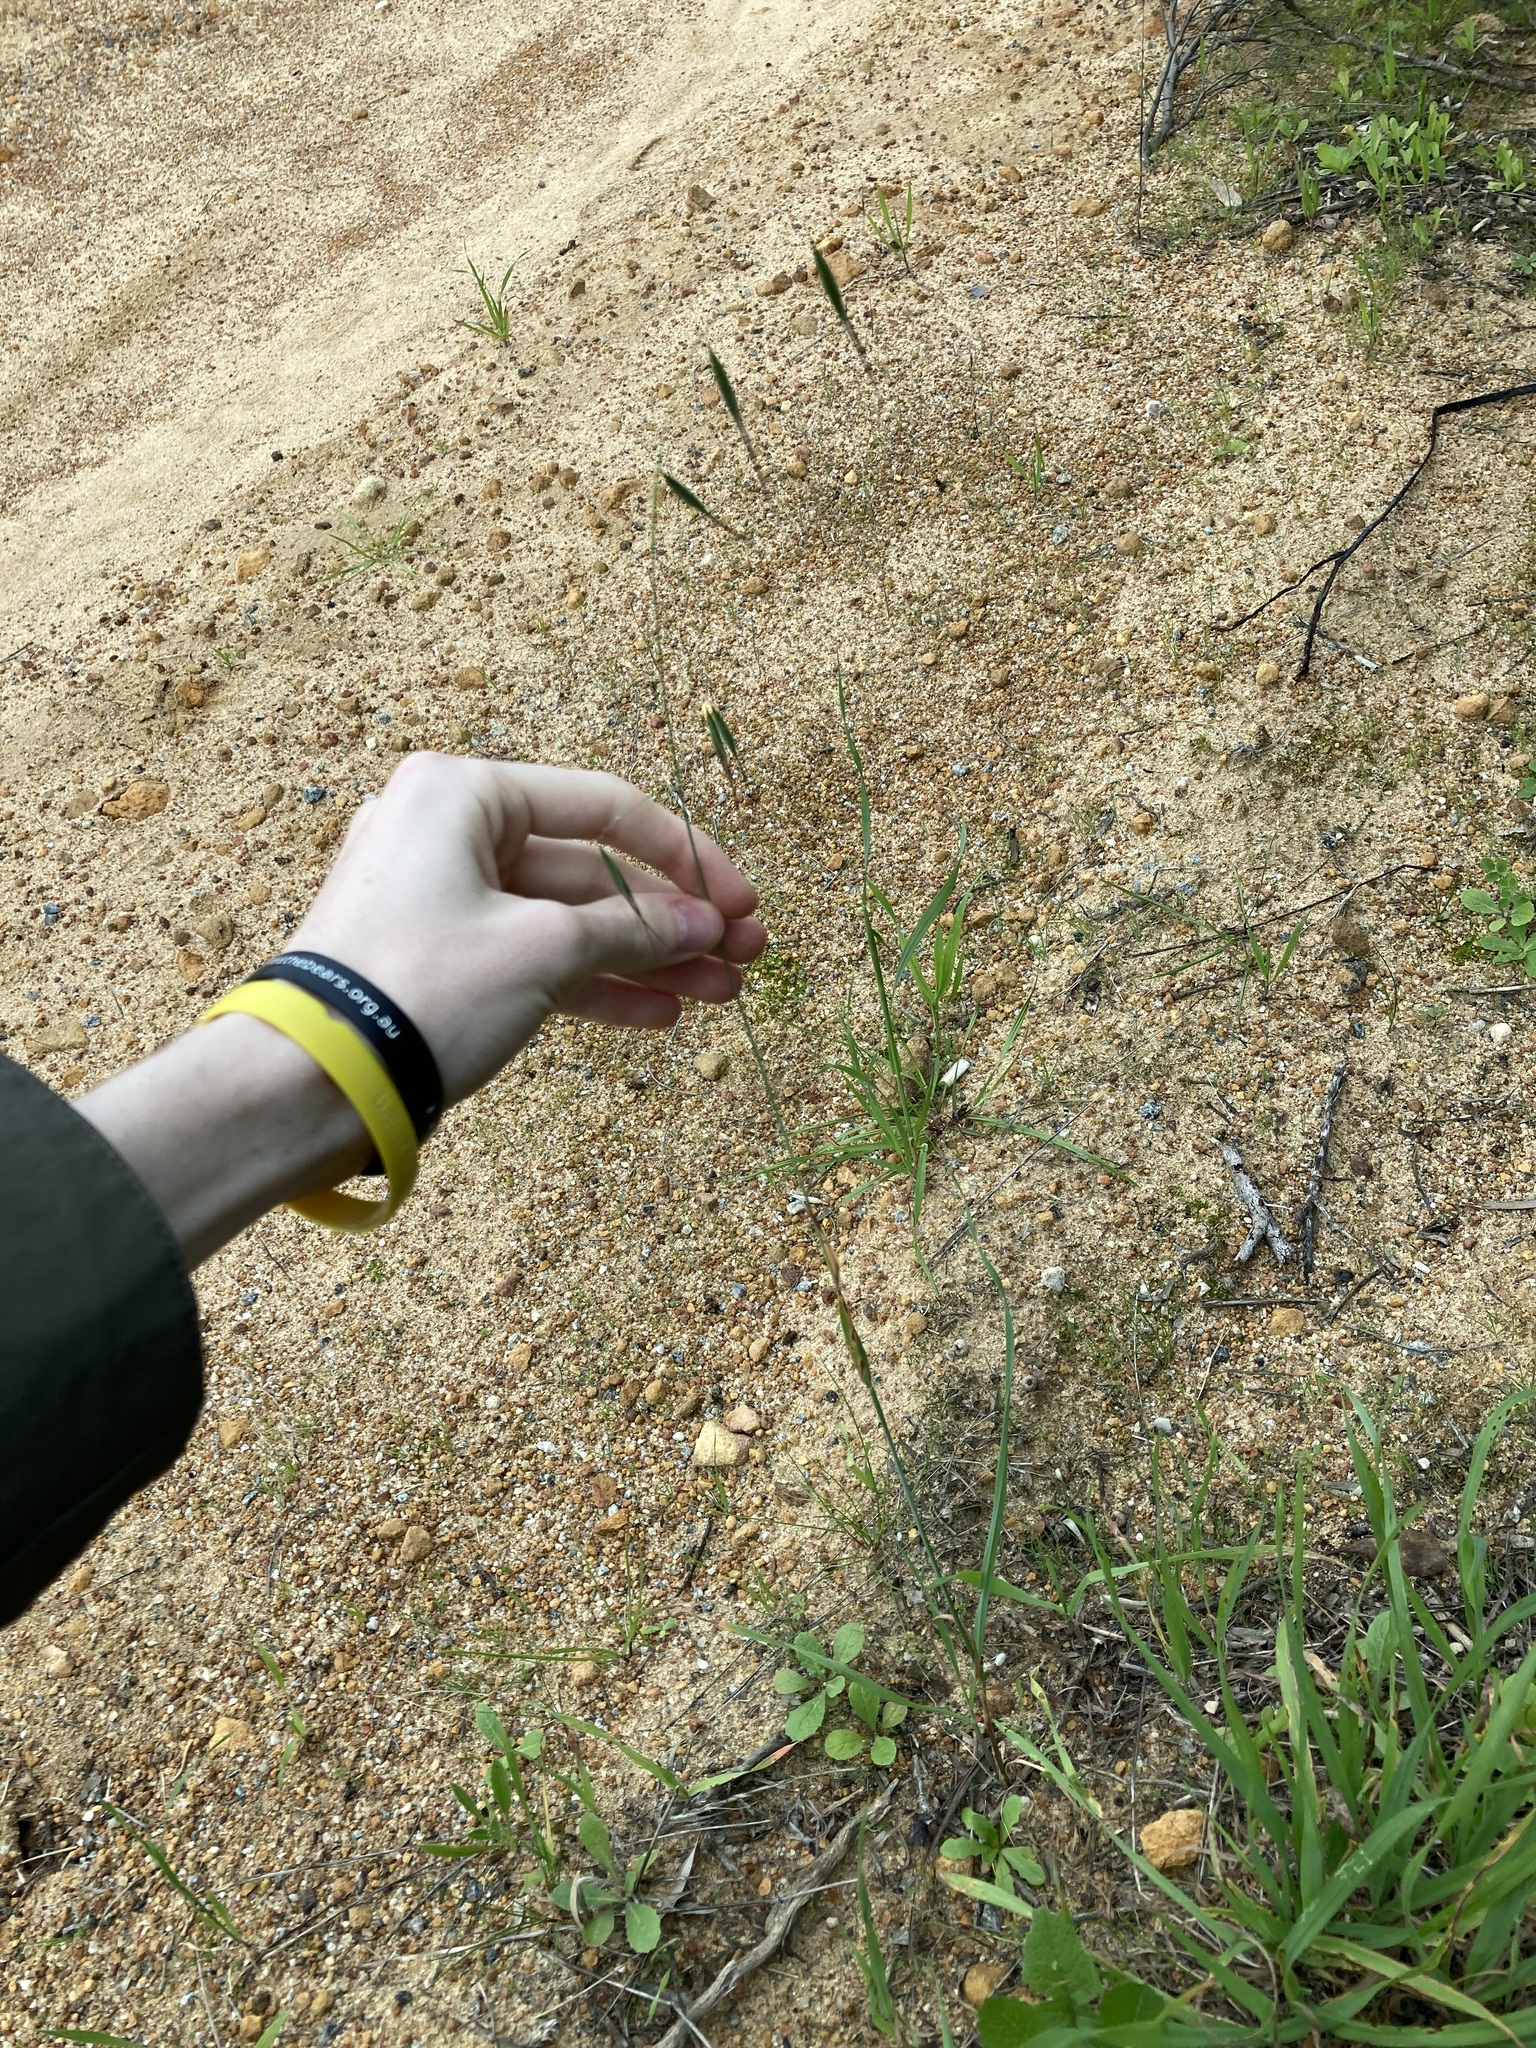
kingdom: Plantae
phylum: Tracheophyta
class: Liliopsida
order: Poales
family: Poaceae
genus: Avena
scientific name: Avena barbata
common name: Slender oat
